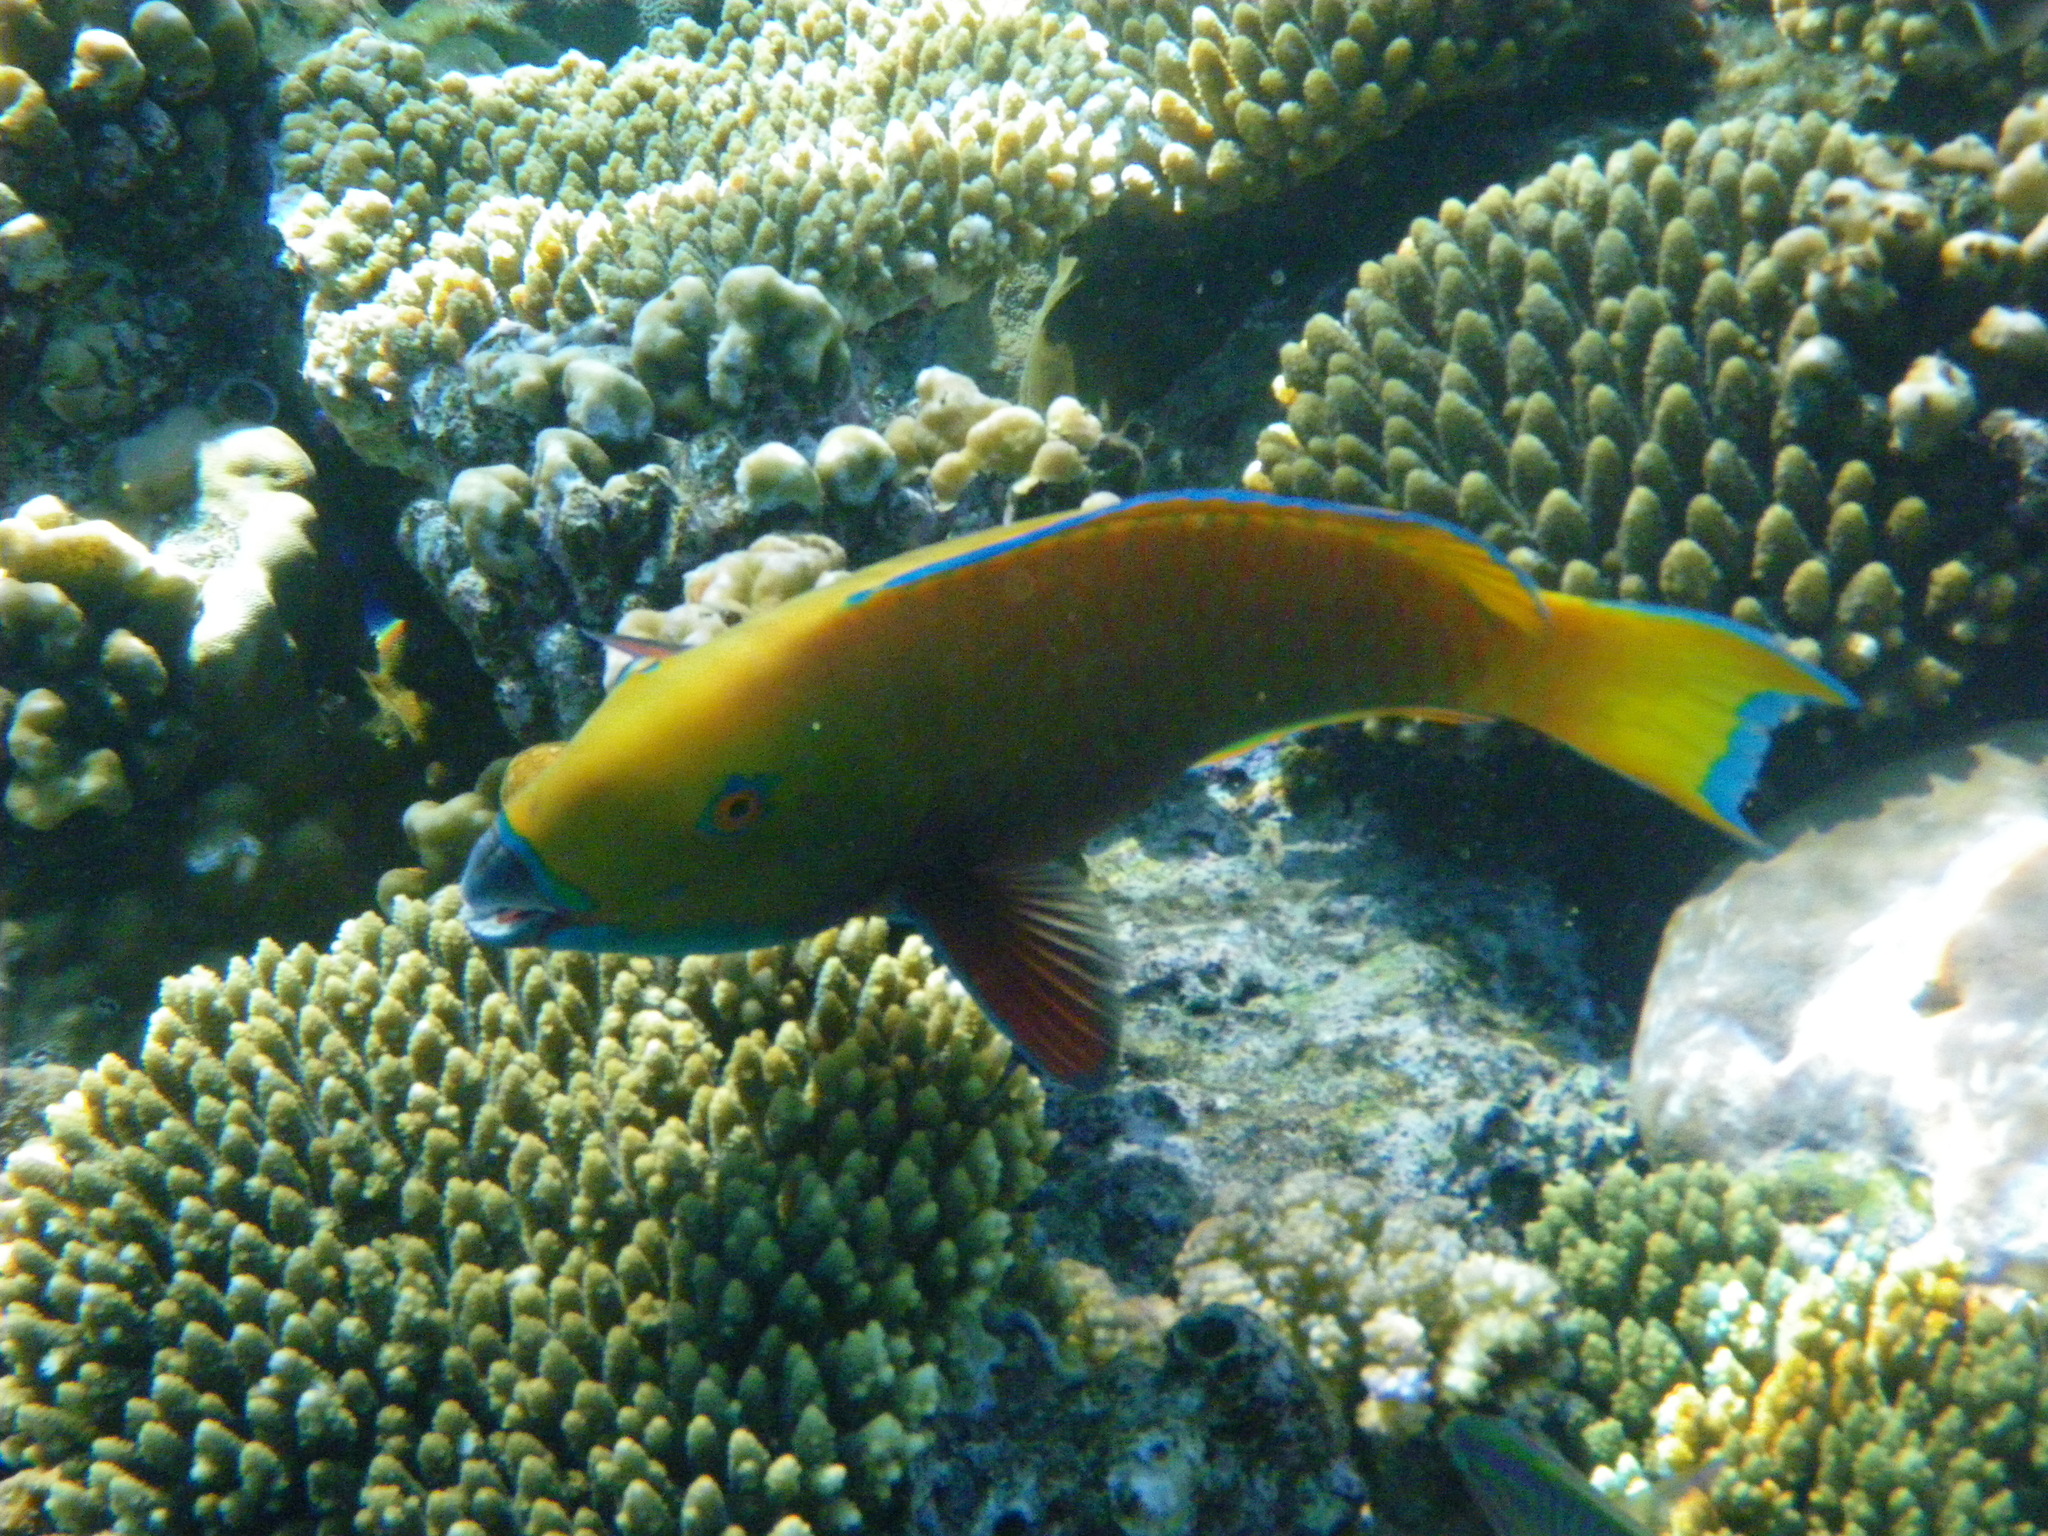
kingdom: Animalia
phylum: Chordata
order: Perciformes
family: Scaridae
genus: Chlorurus
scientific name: Chlorurus gibbus
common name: Heavybeak parrotfish
